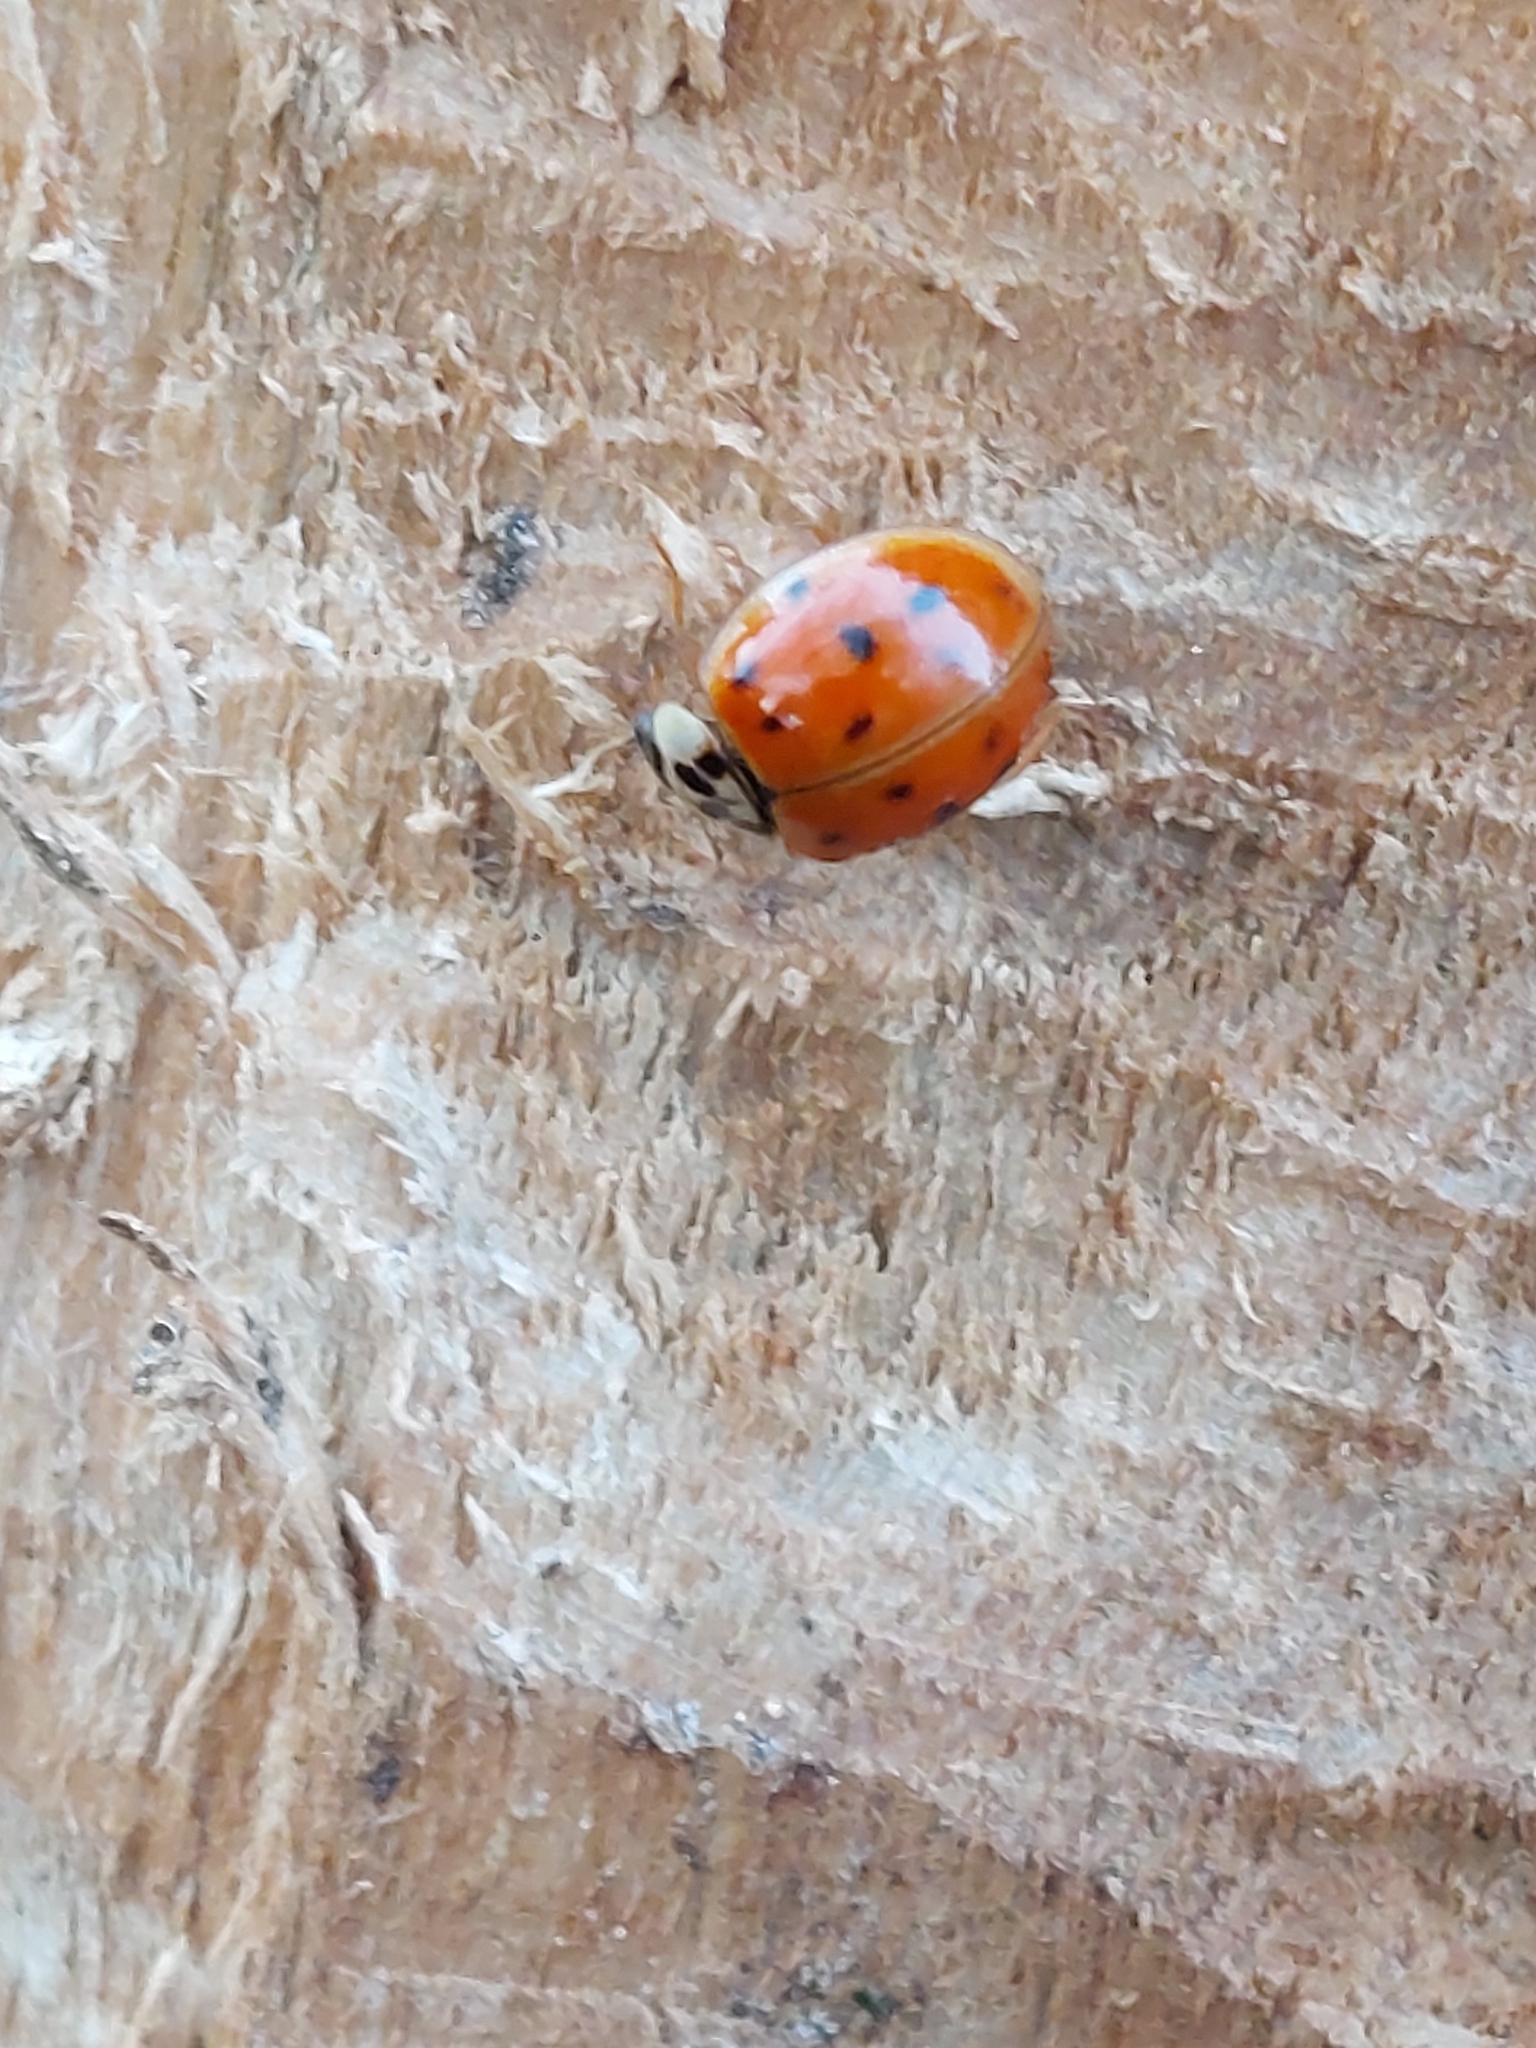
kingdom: Animalia
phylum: Arthropoda
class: Insecta
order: Coleoptera
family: Coccinellidae
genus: Harmonia
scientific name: Harmonia axyridis
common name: Harlequin ladybird
